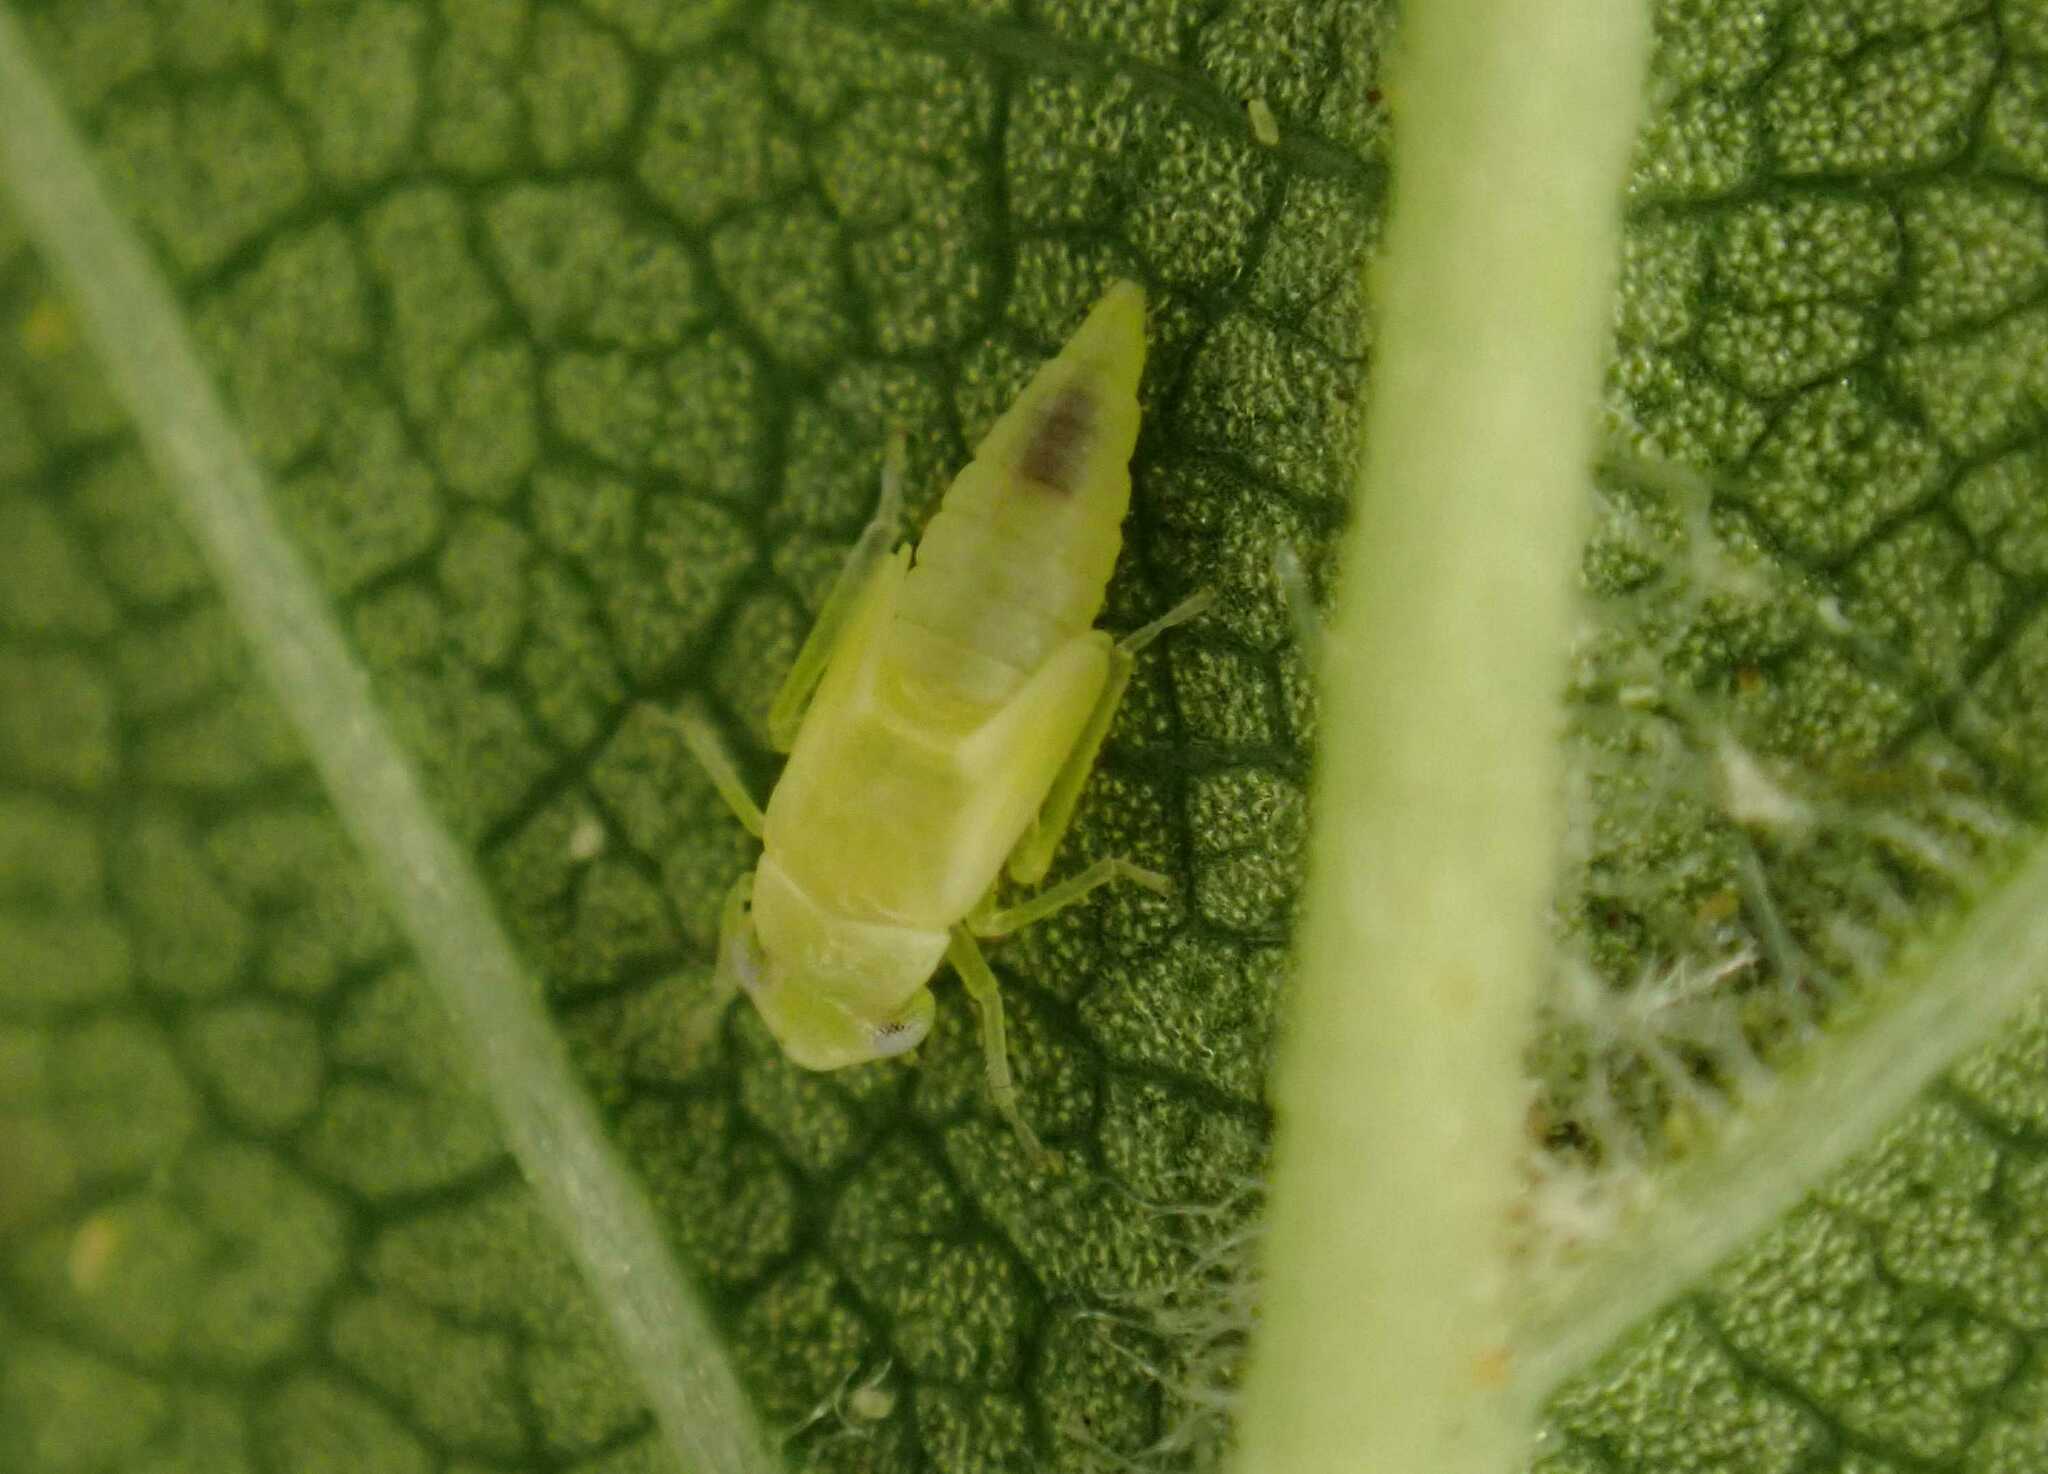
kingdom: Animalia
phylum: Arthropoda
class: Insecta
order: Hemiptera
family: Cicadellidae
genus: Tautoneura
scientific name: Tautoneura polymitusa
